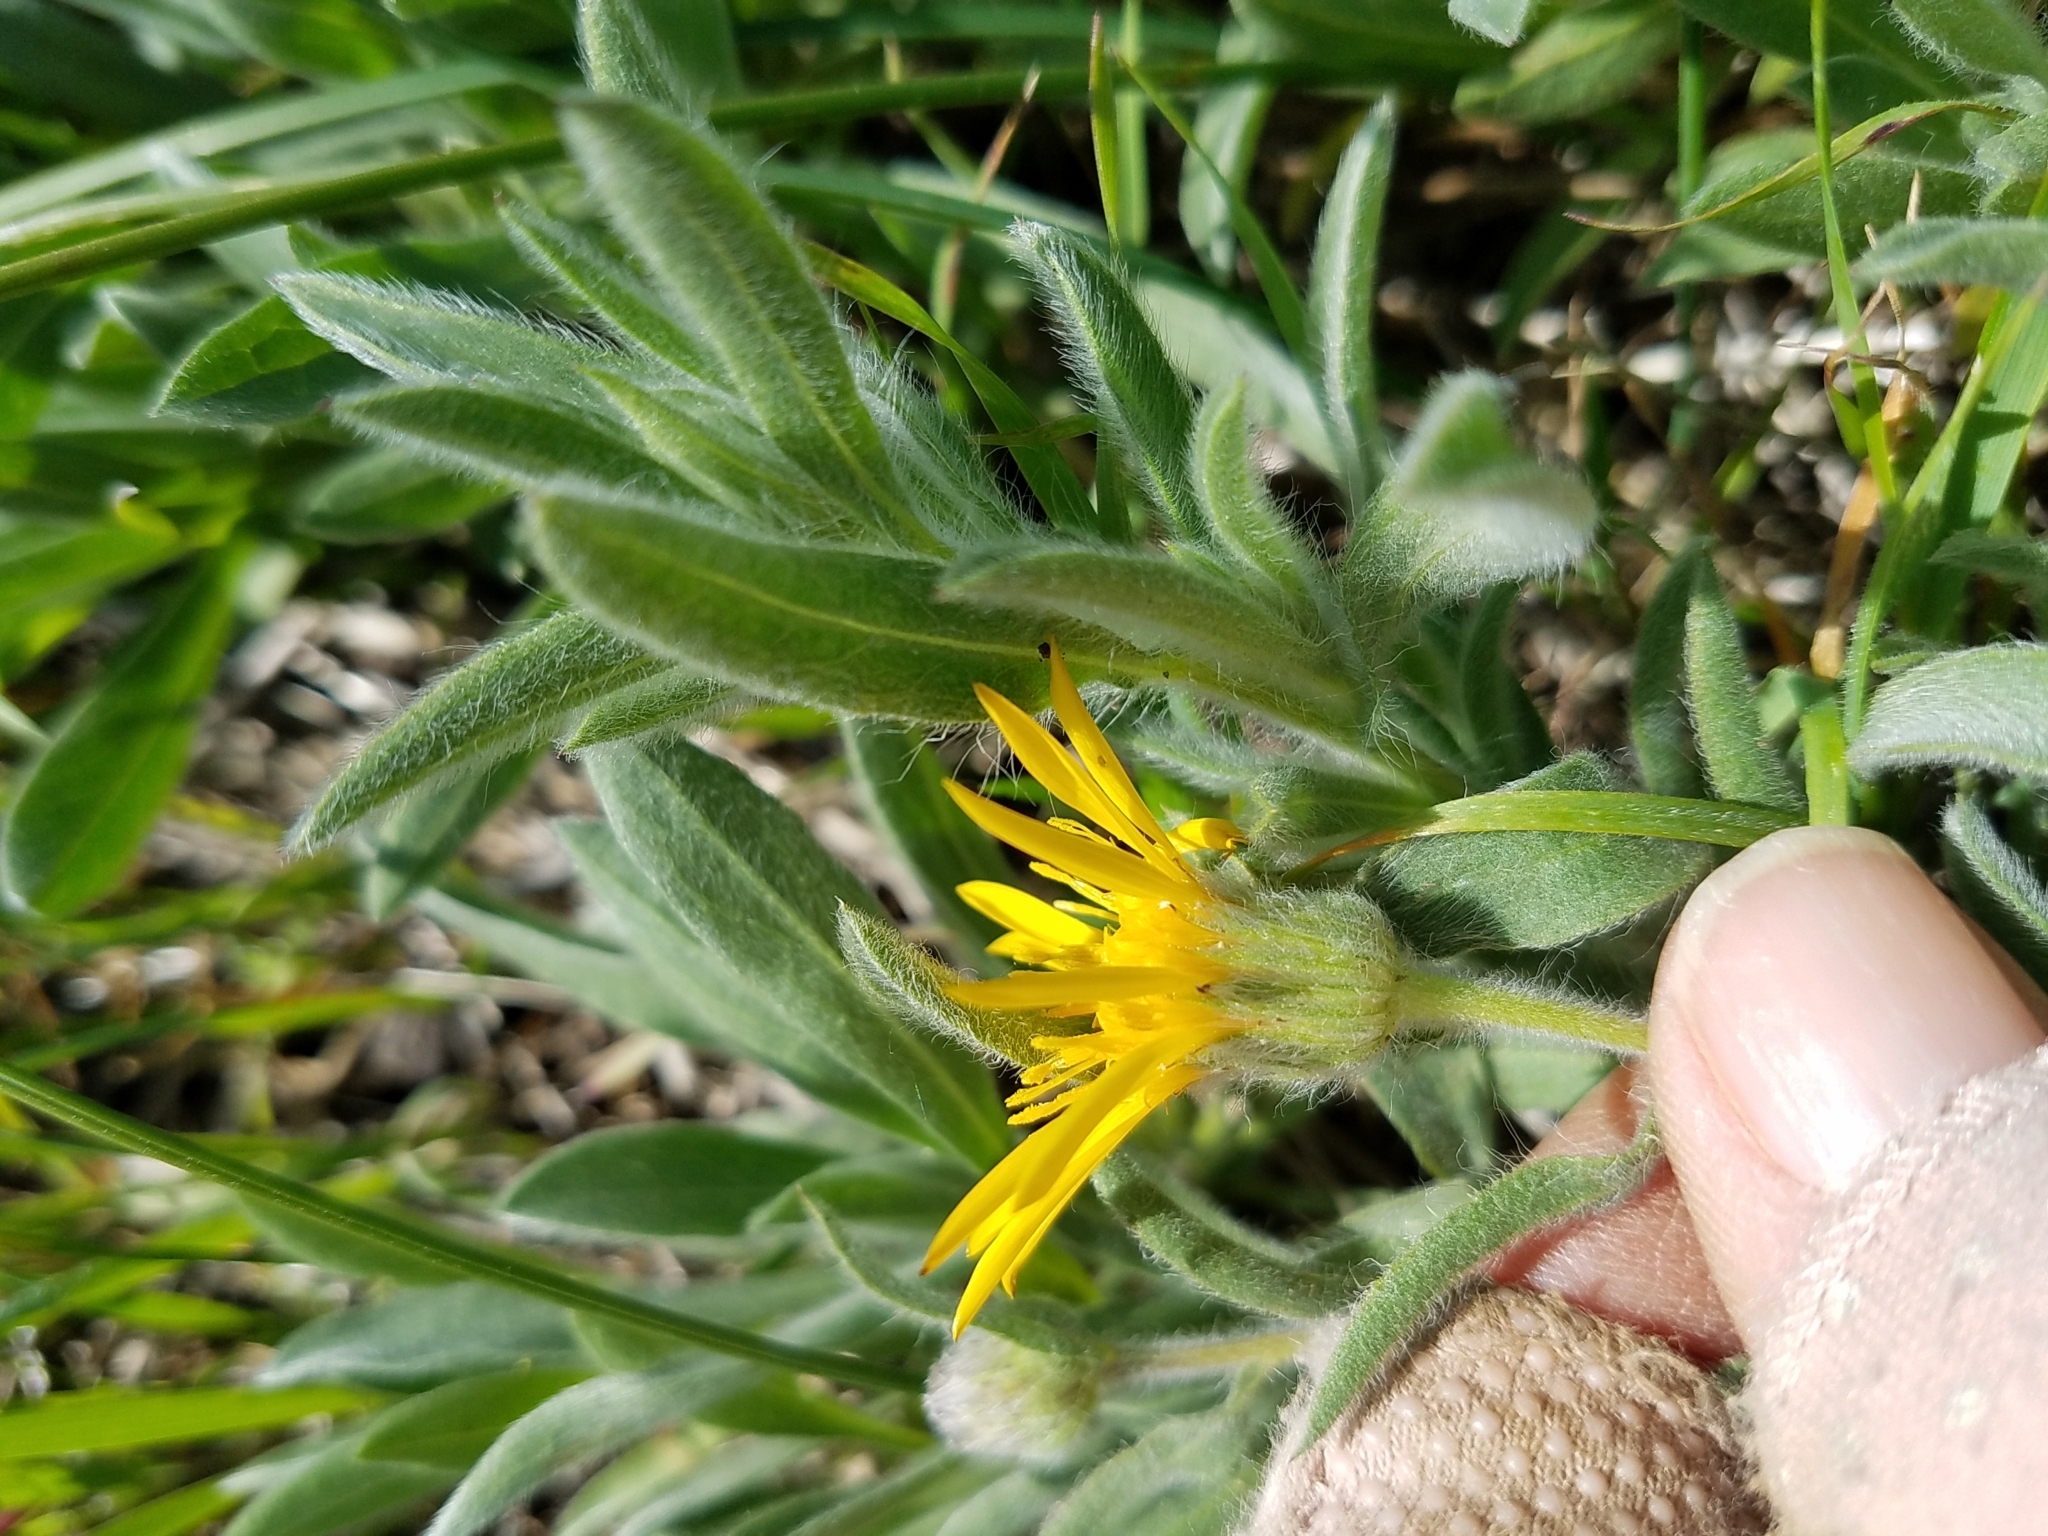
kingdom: Plantae
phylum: Tracheophyta
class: Magnoliopsida
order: Asterales
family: Asteraceae
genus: Heterotheca
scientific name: Heterotheca bolanderi
